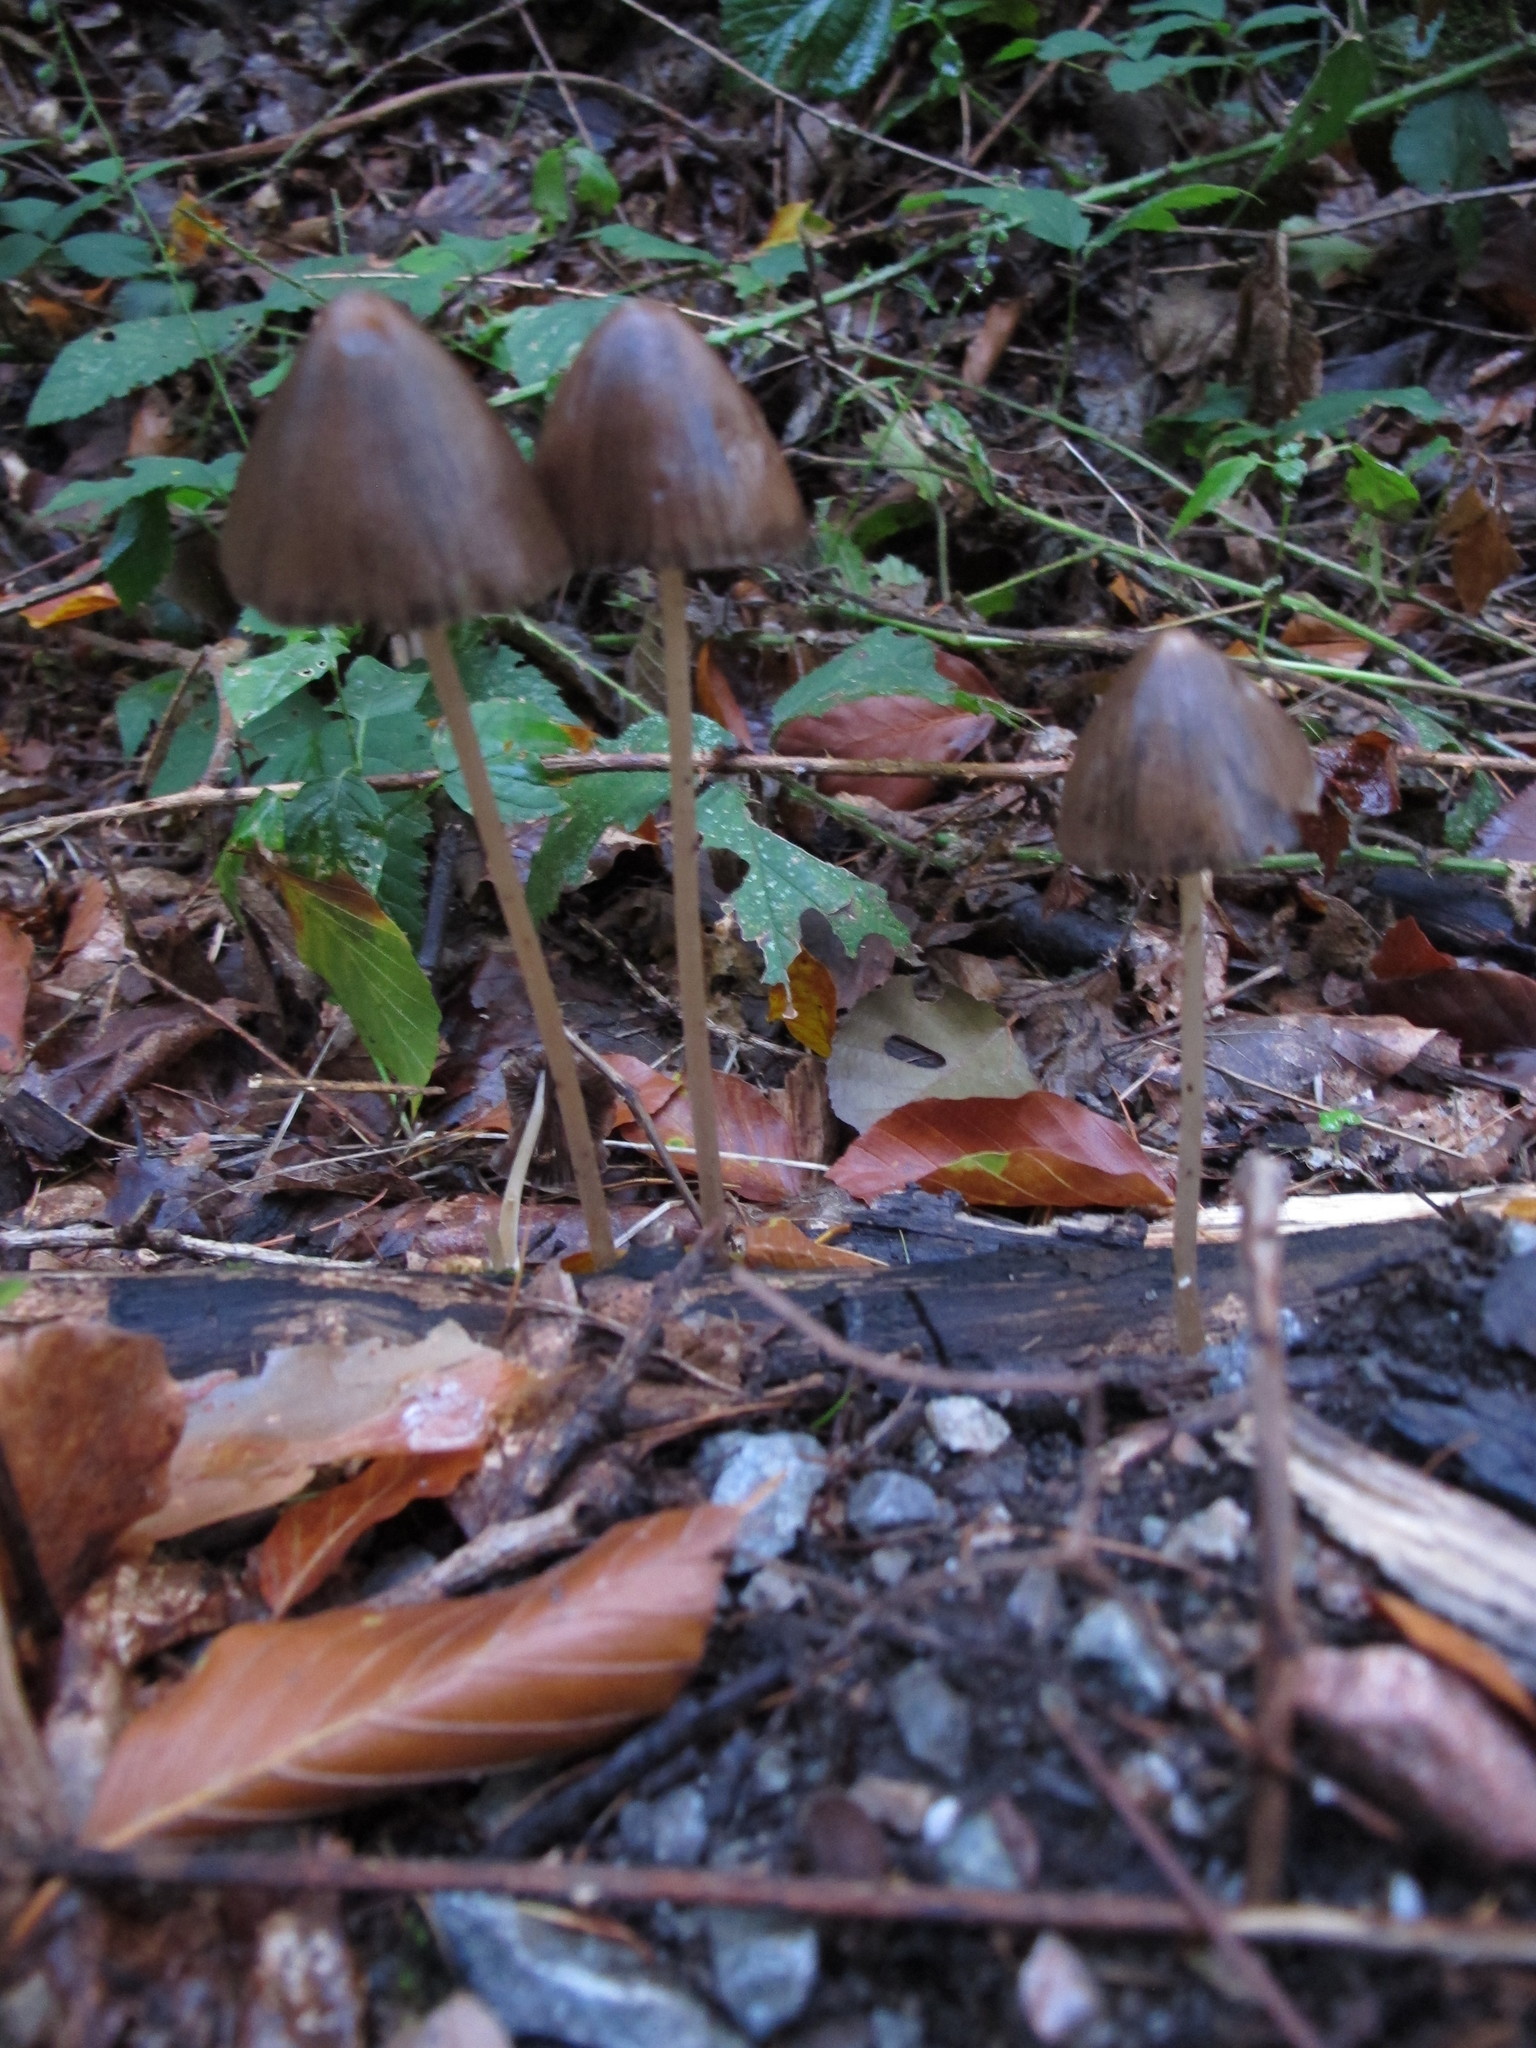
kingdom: Fungi
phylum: Basidiomycota
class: Agaricomycetes
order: Agaricales
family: Psathyrellaceae
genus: Parasola
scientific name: Parasola conopilea
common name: Conical brittlestem
